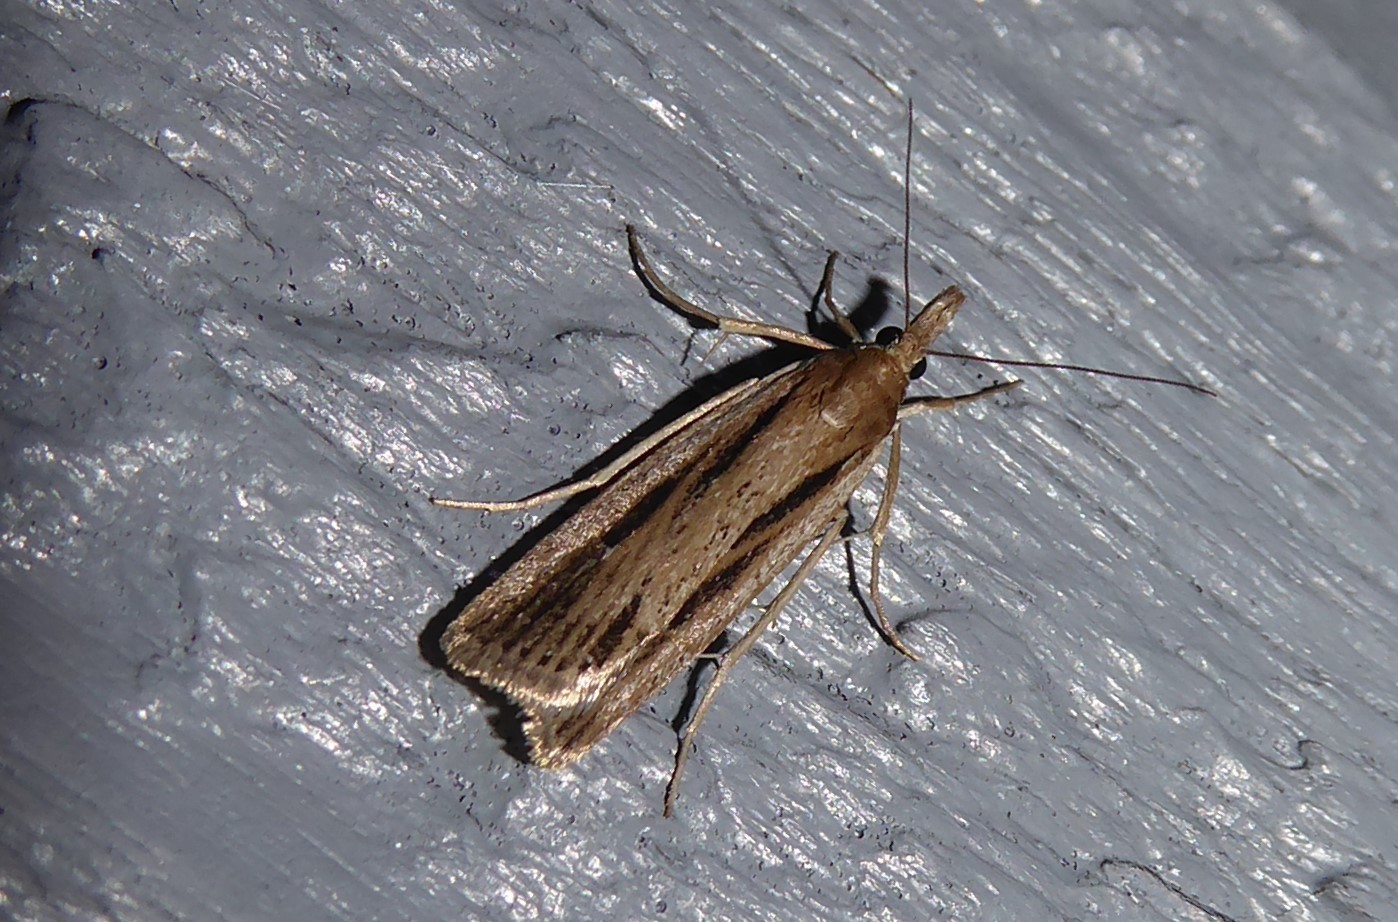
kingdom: Animalia
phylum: Arthropoda
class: Insecta
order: Lepidoptera
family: Crambidae
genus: Eudonia
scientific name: Eudonia sabulosella
